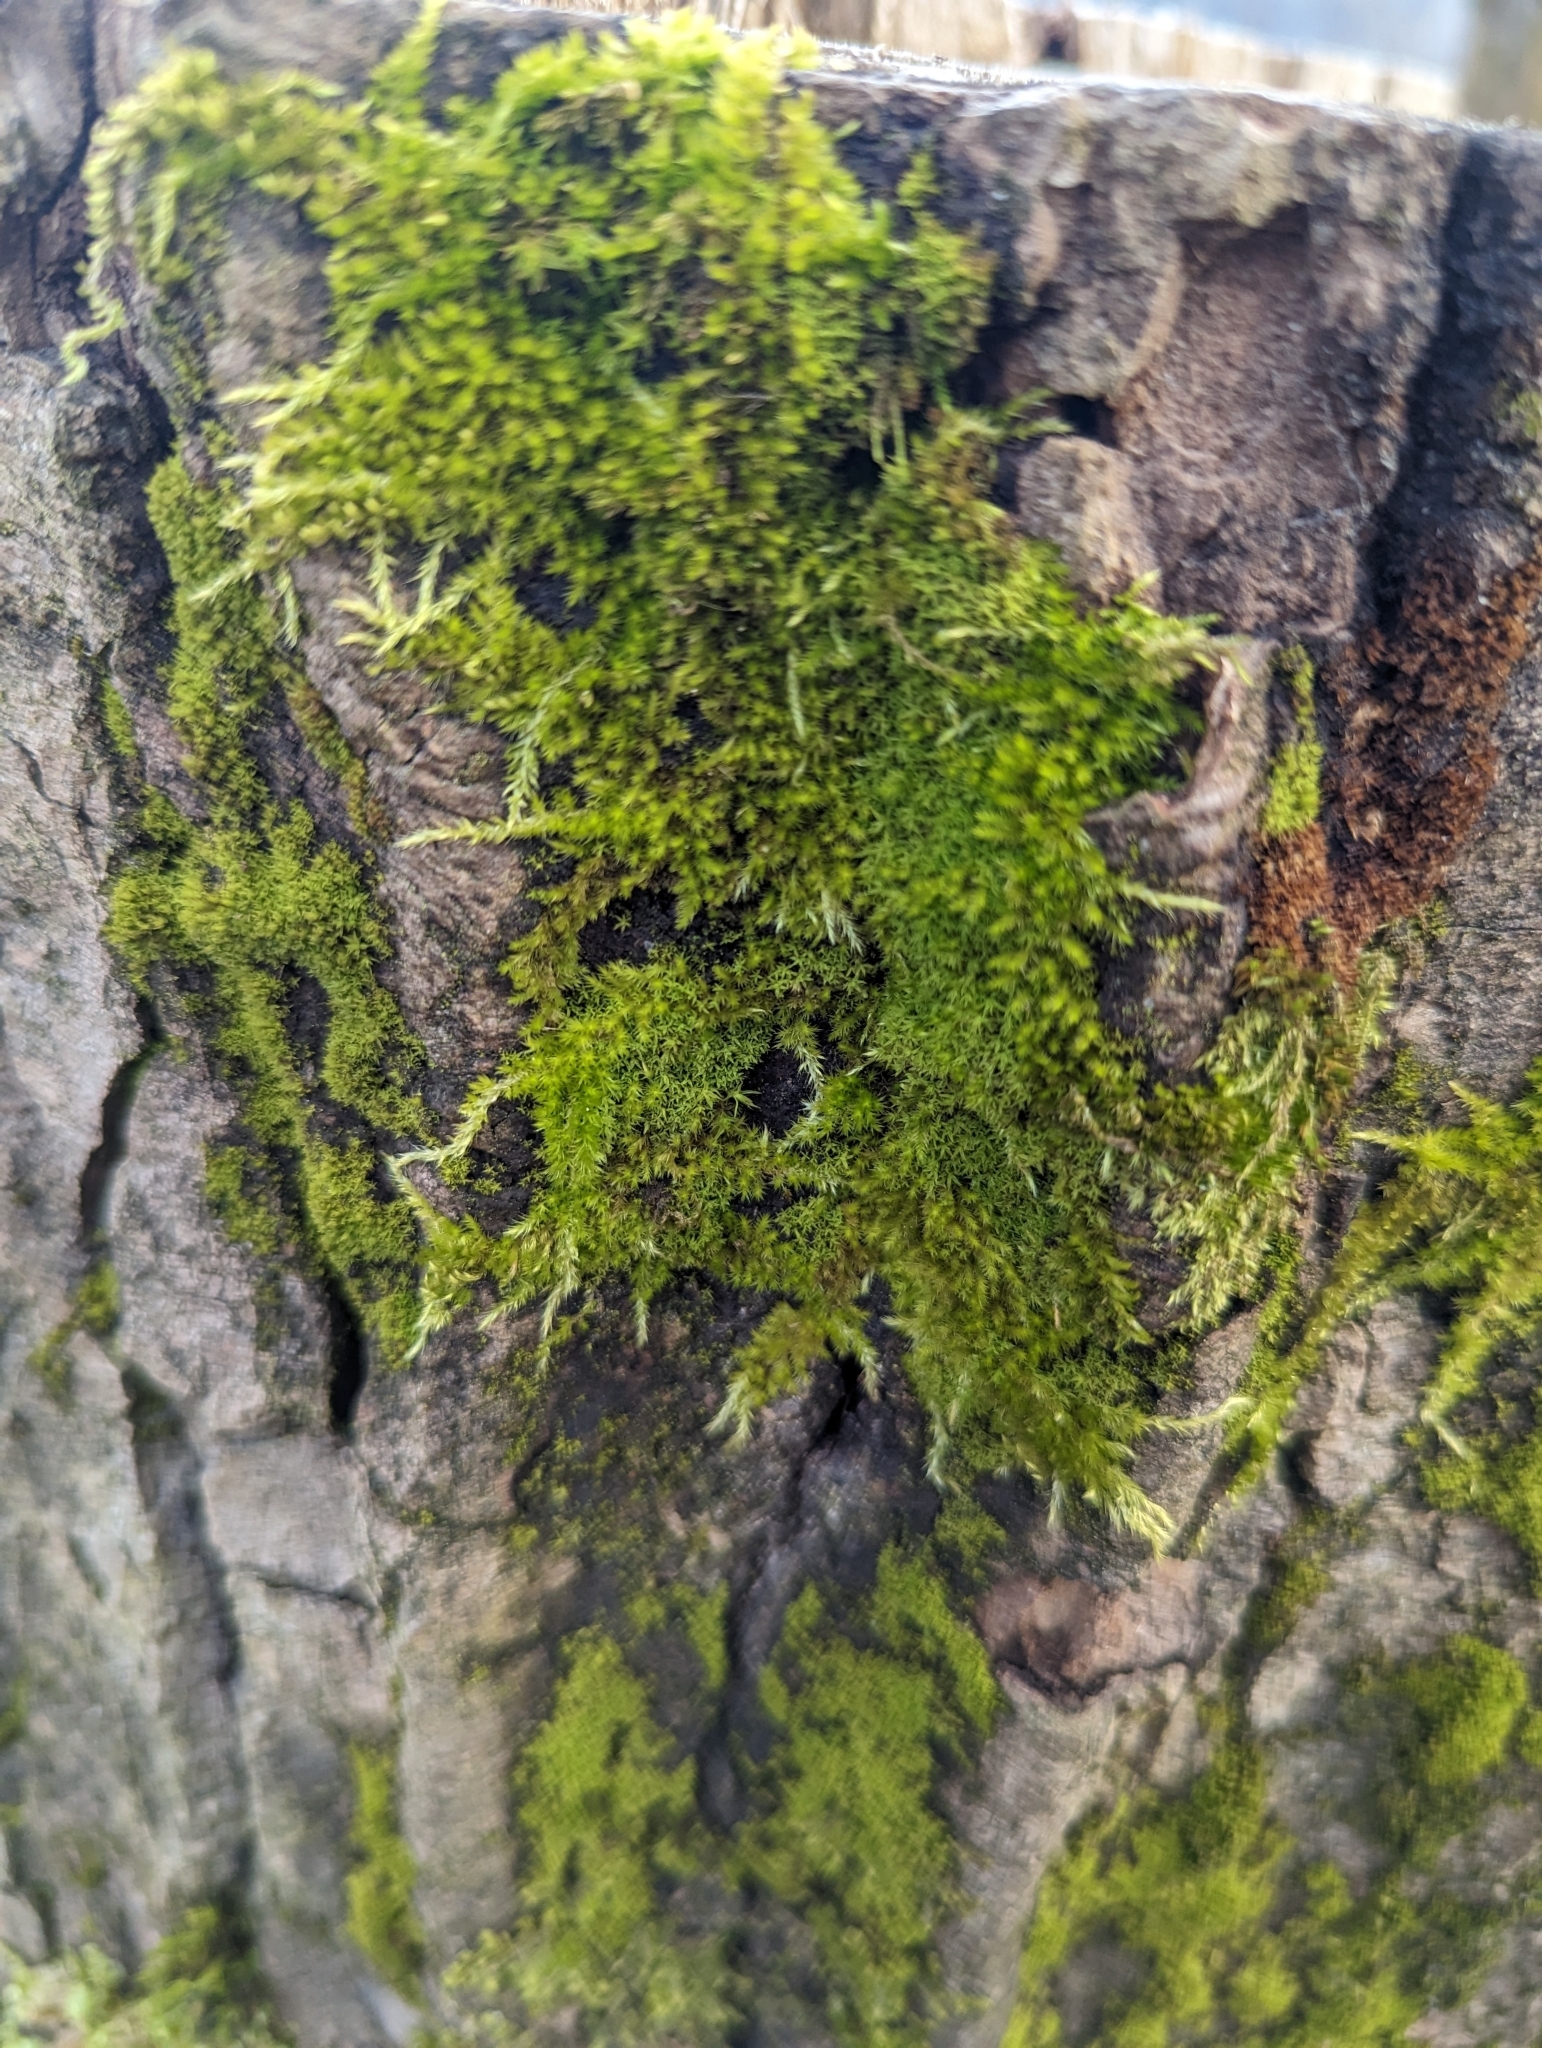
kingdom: Plantae
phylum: Bryophyta
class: Bryopsida
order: Hypnales
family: Brachytheciaceae
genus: Homalothecium
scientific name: Homalothecium nuttallii
